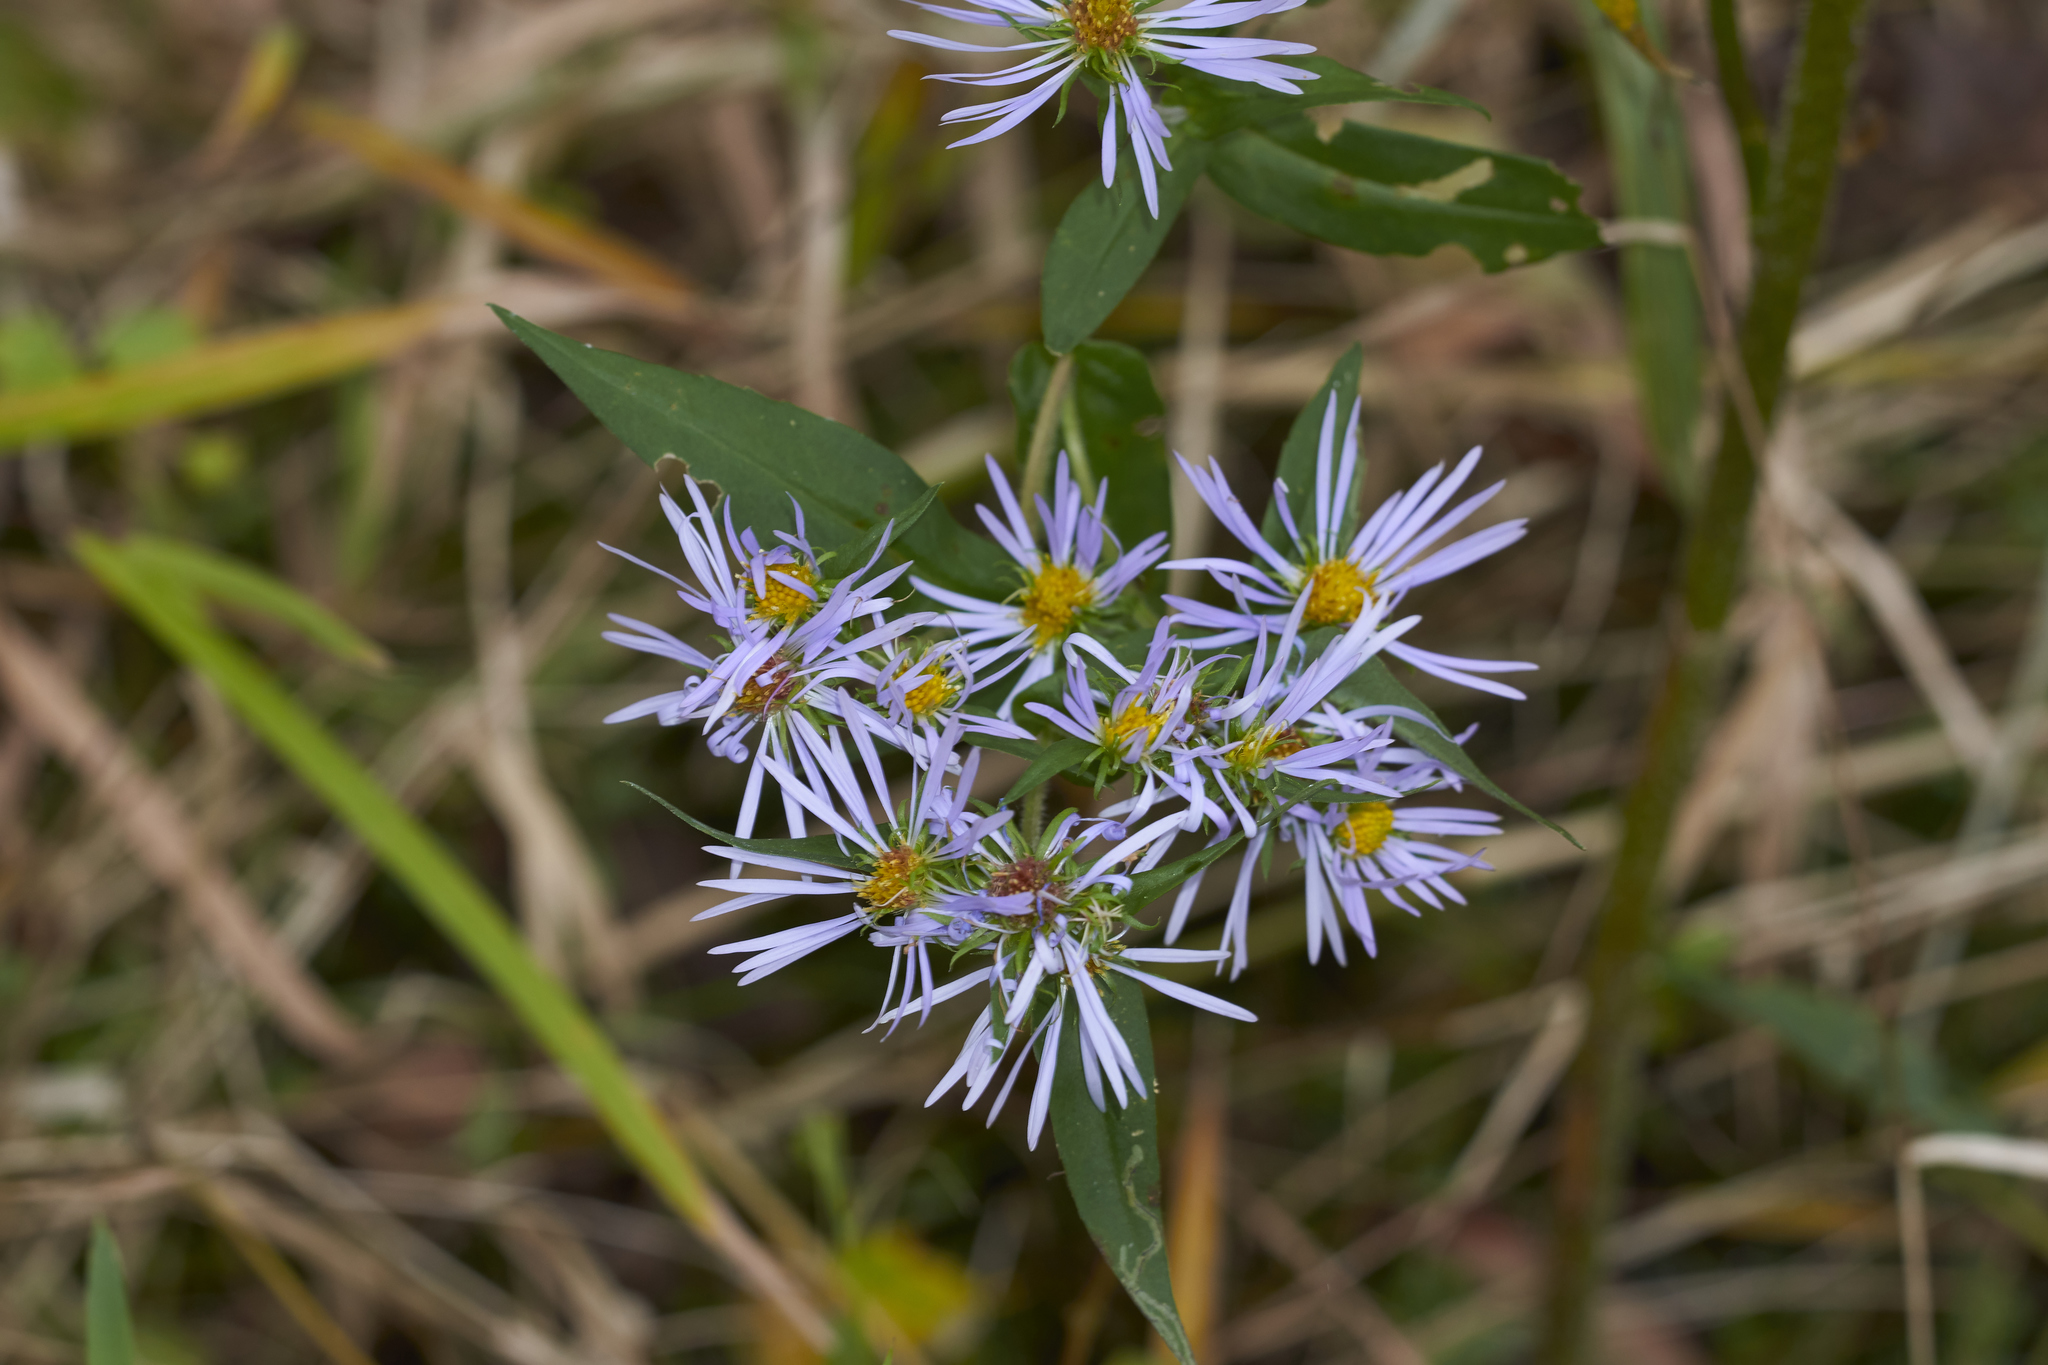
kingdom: Plantae
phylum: Tracheophyta
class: Magnoliopsida
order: Asterales
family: Asteraceae
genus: Symphyotrichum
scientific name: Symphyotrichum puniceum
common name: Bog aster
